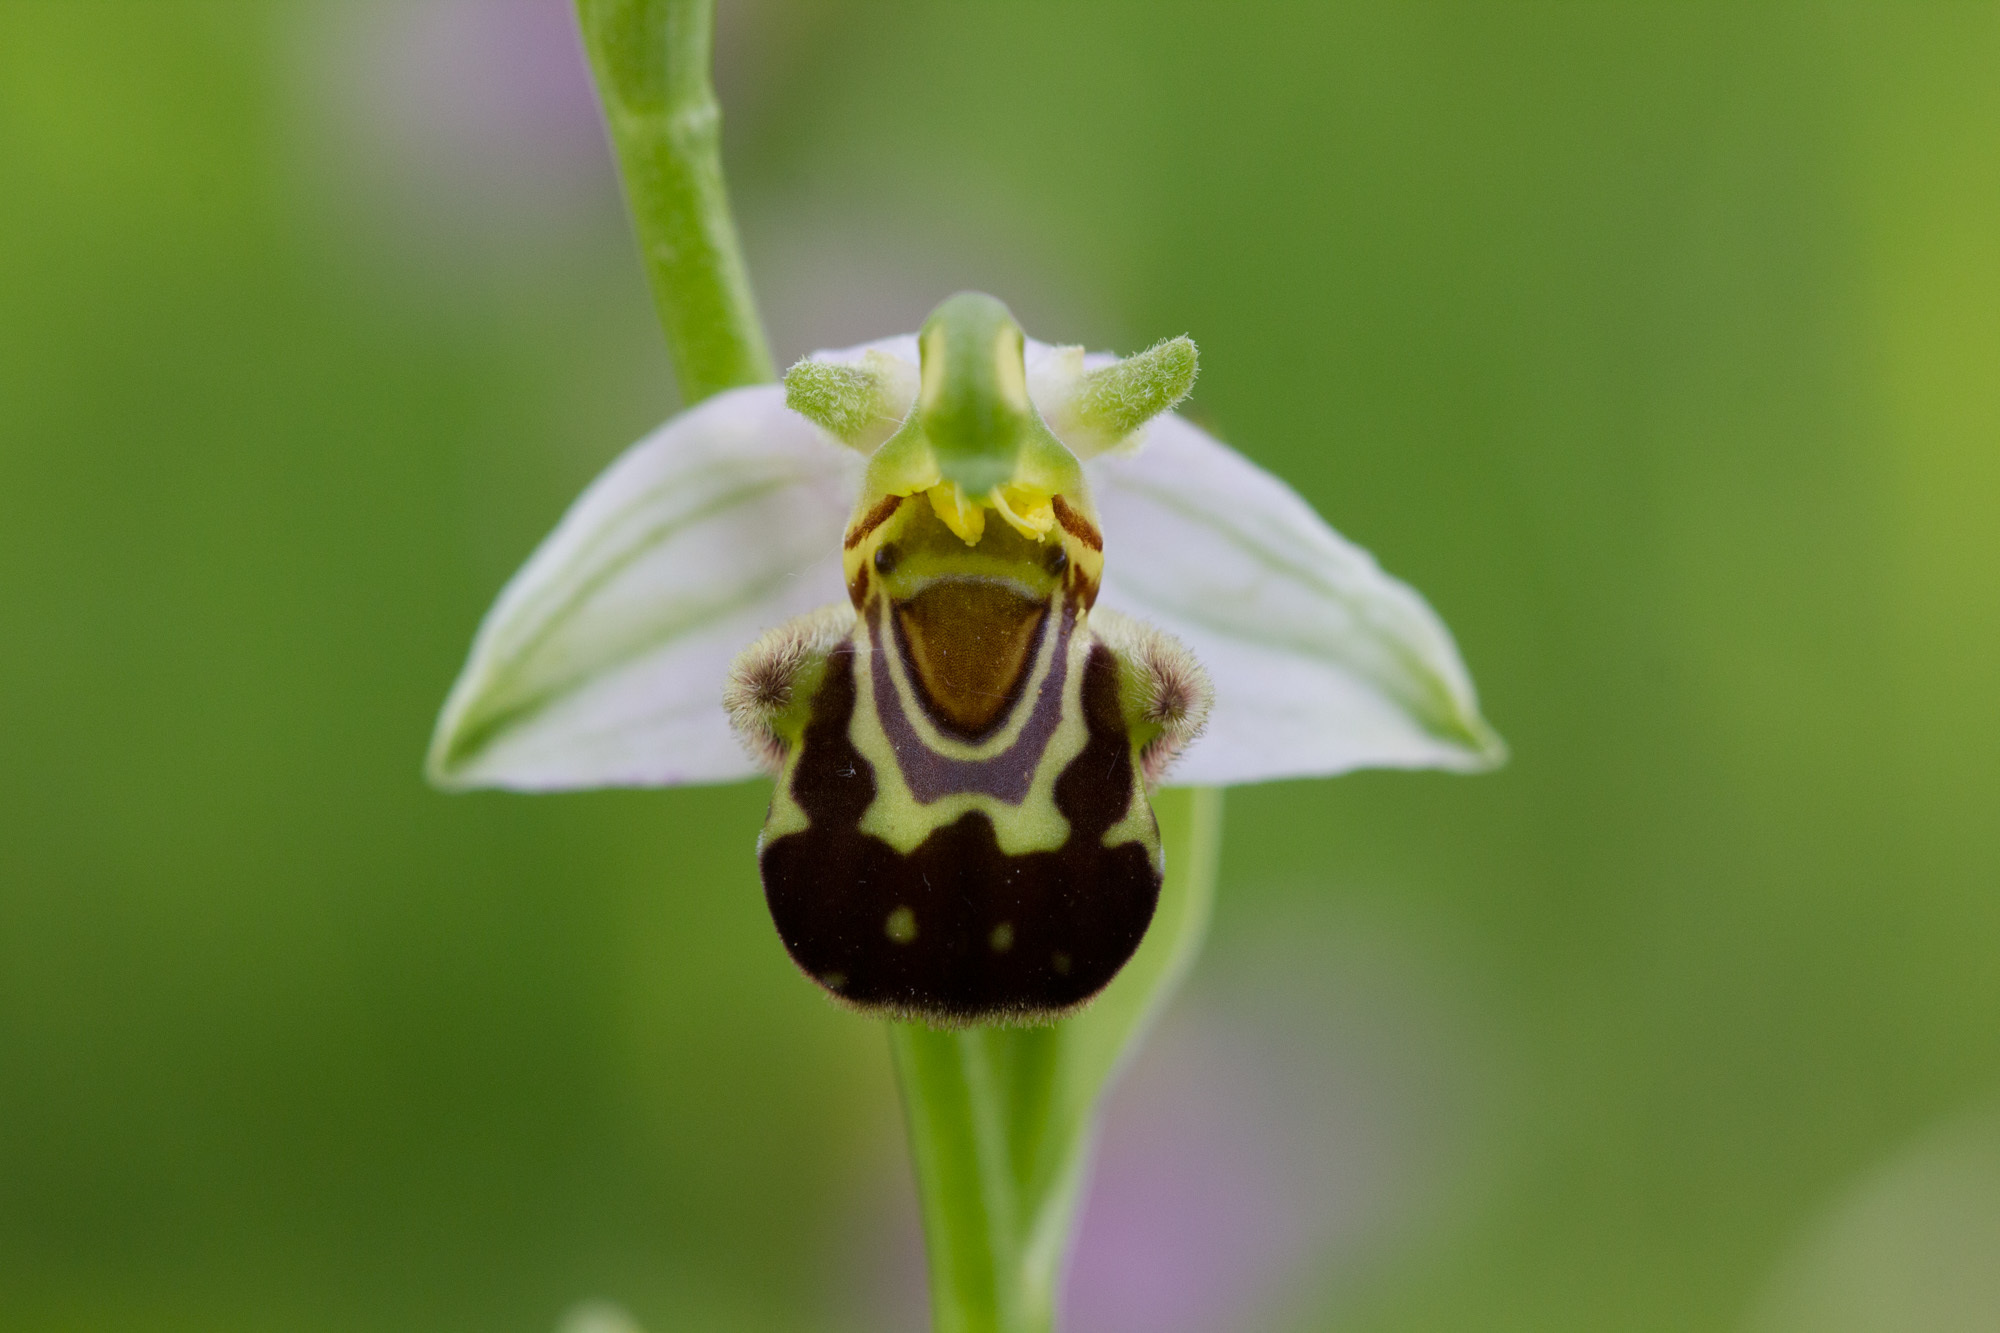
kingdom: Plantae
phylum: Tracheophyta
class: Liliopsida
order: Asparagales
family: Orchidaceae
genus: Ophrys
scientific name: Ophrys apifera
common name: Bee orchid
